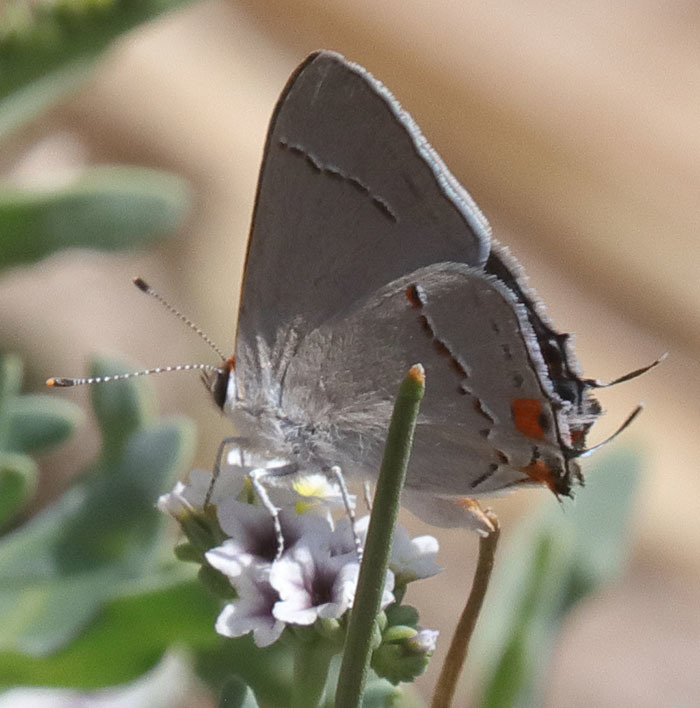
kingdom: Animalia
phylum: Arthropoda
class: Insecta
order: Lepidoptera
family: Lycaenidae
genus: Strymon
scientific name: Strymon melinus
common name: Gray hairstreak
